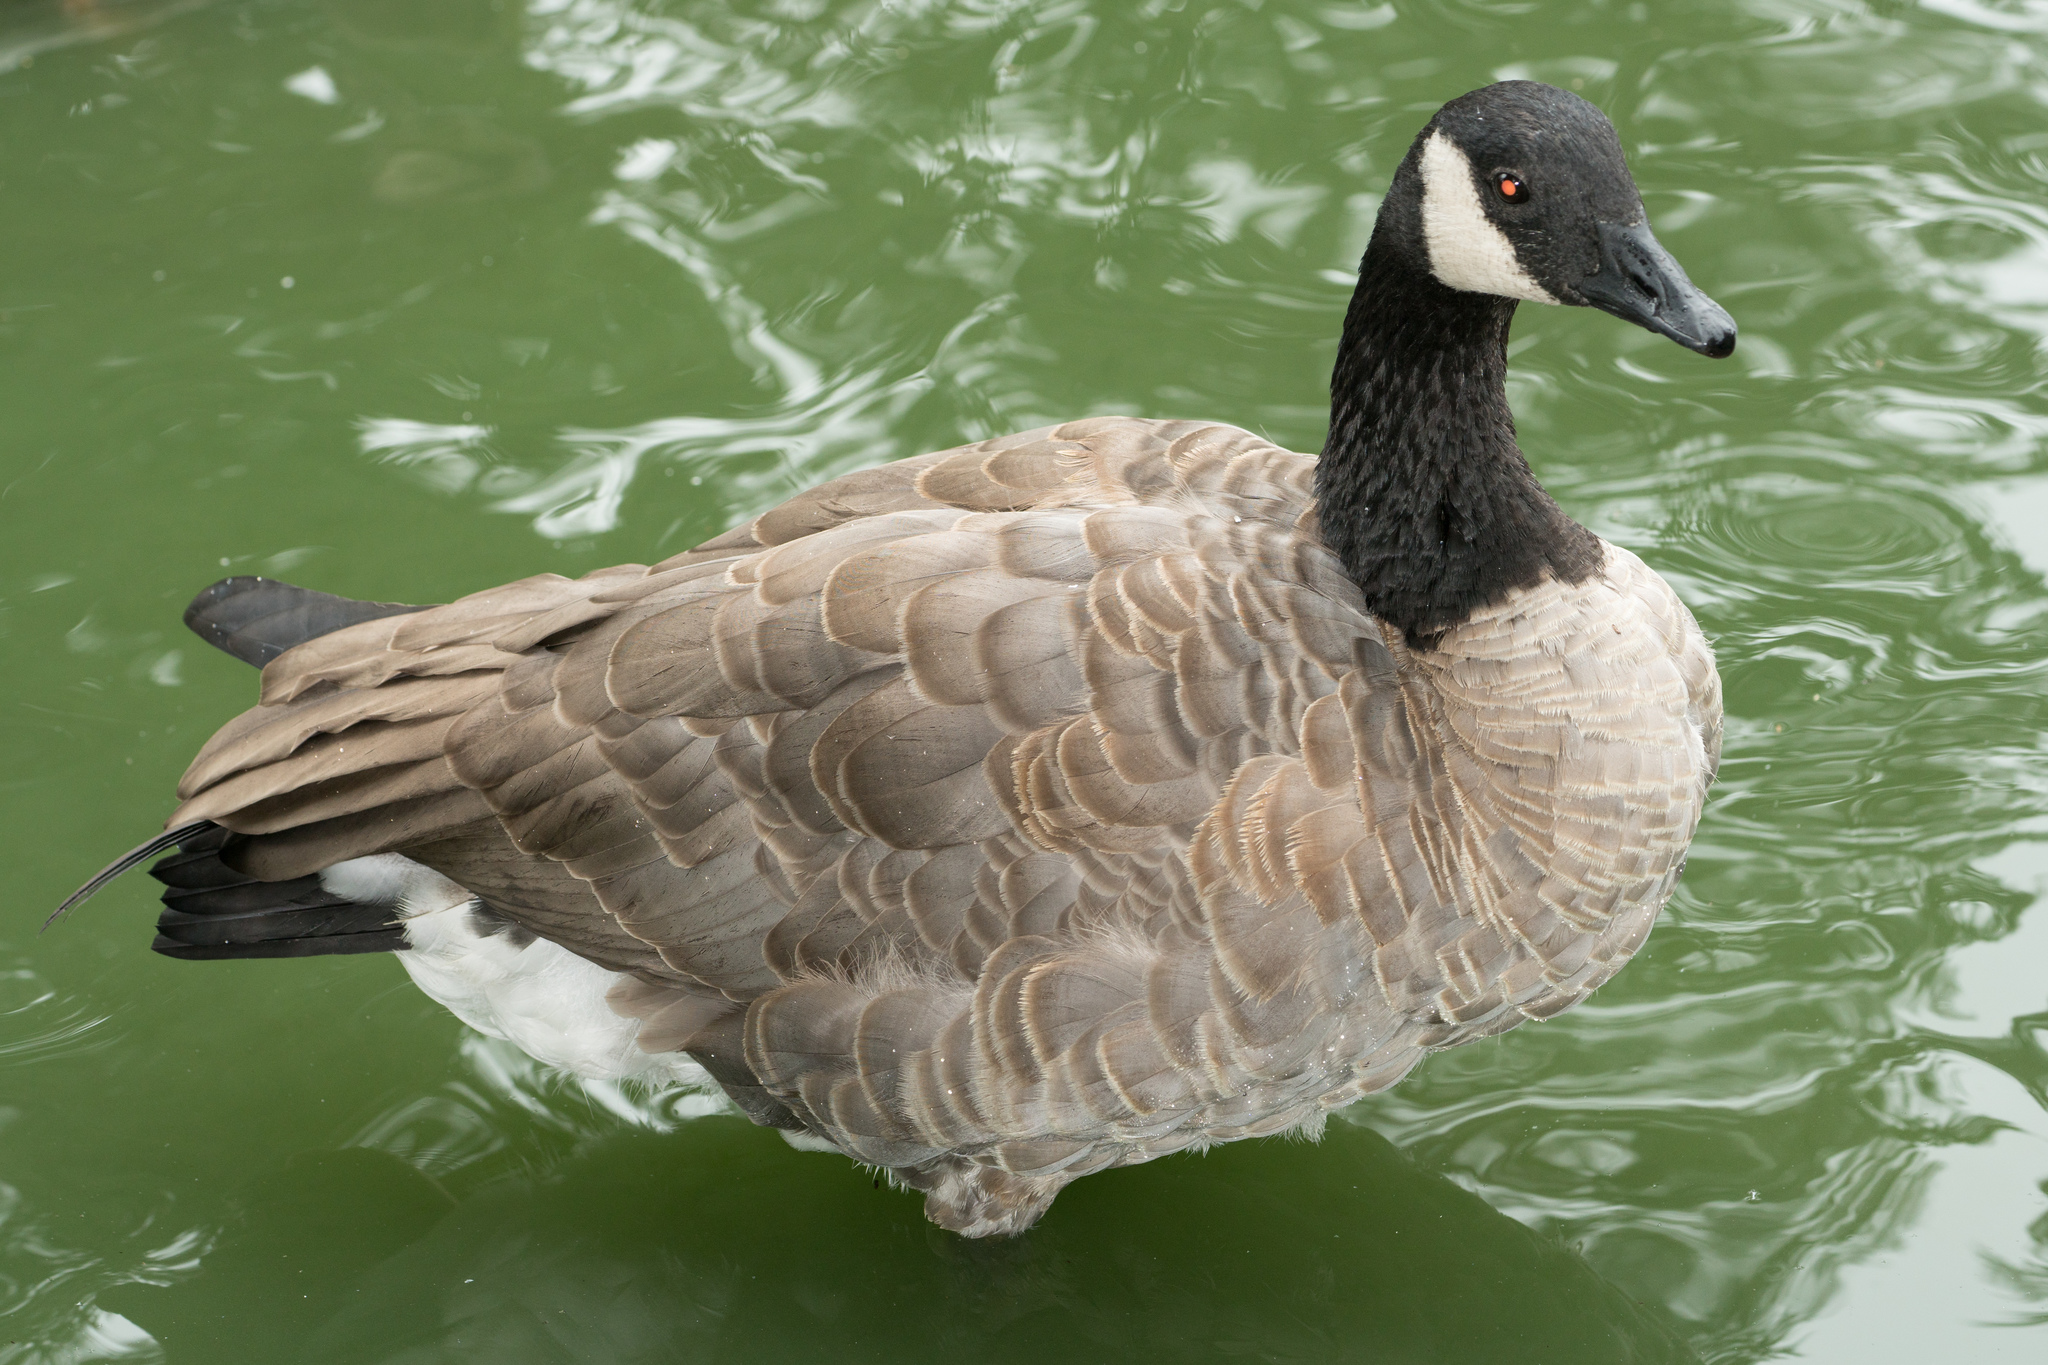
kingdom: Animalia
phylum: Chordata
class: Aves
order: Anseriformes
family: Anatidae
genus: Branta
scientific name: Branta canadensis
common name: Canada goose
